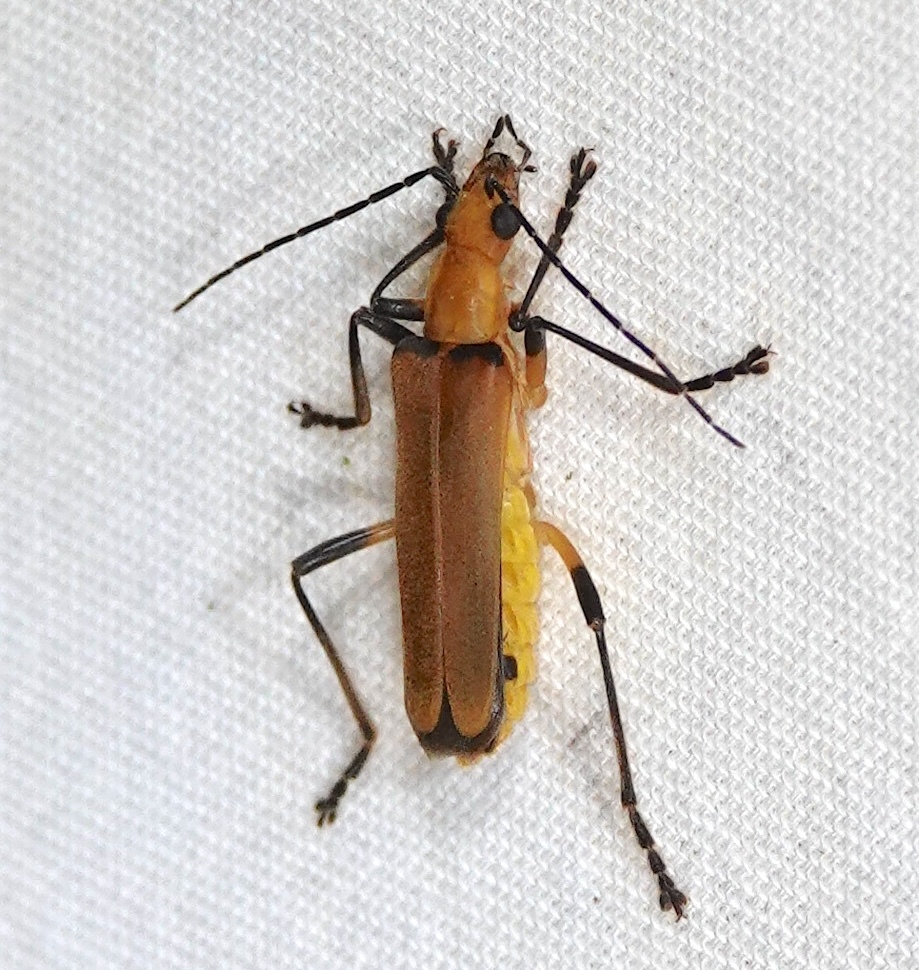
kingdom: Animalia
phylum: Arthropoda
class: Insecta
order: Coleoptera
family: Cantharidae
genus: Chauliognathus
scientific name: Chauliognathus
